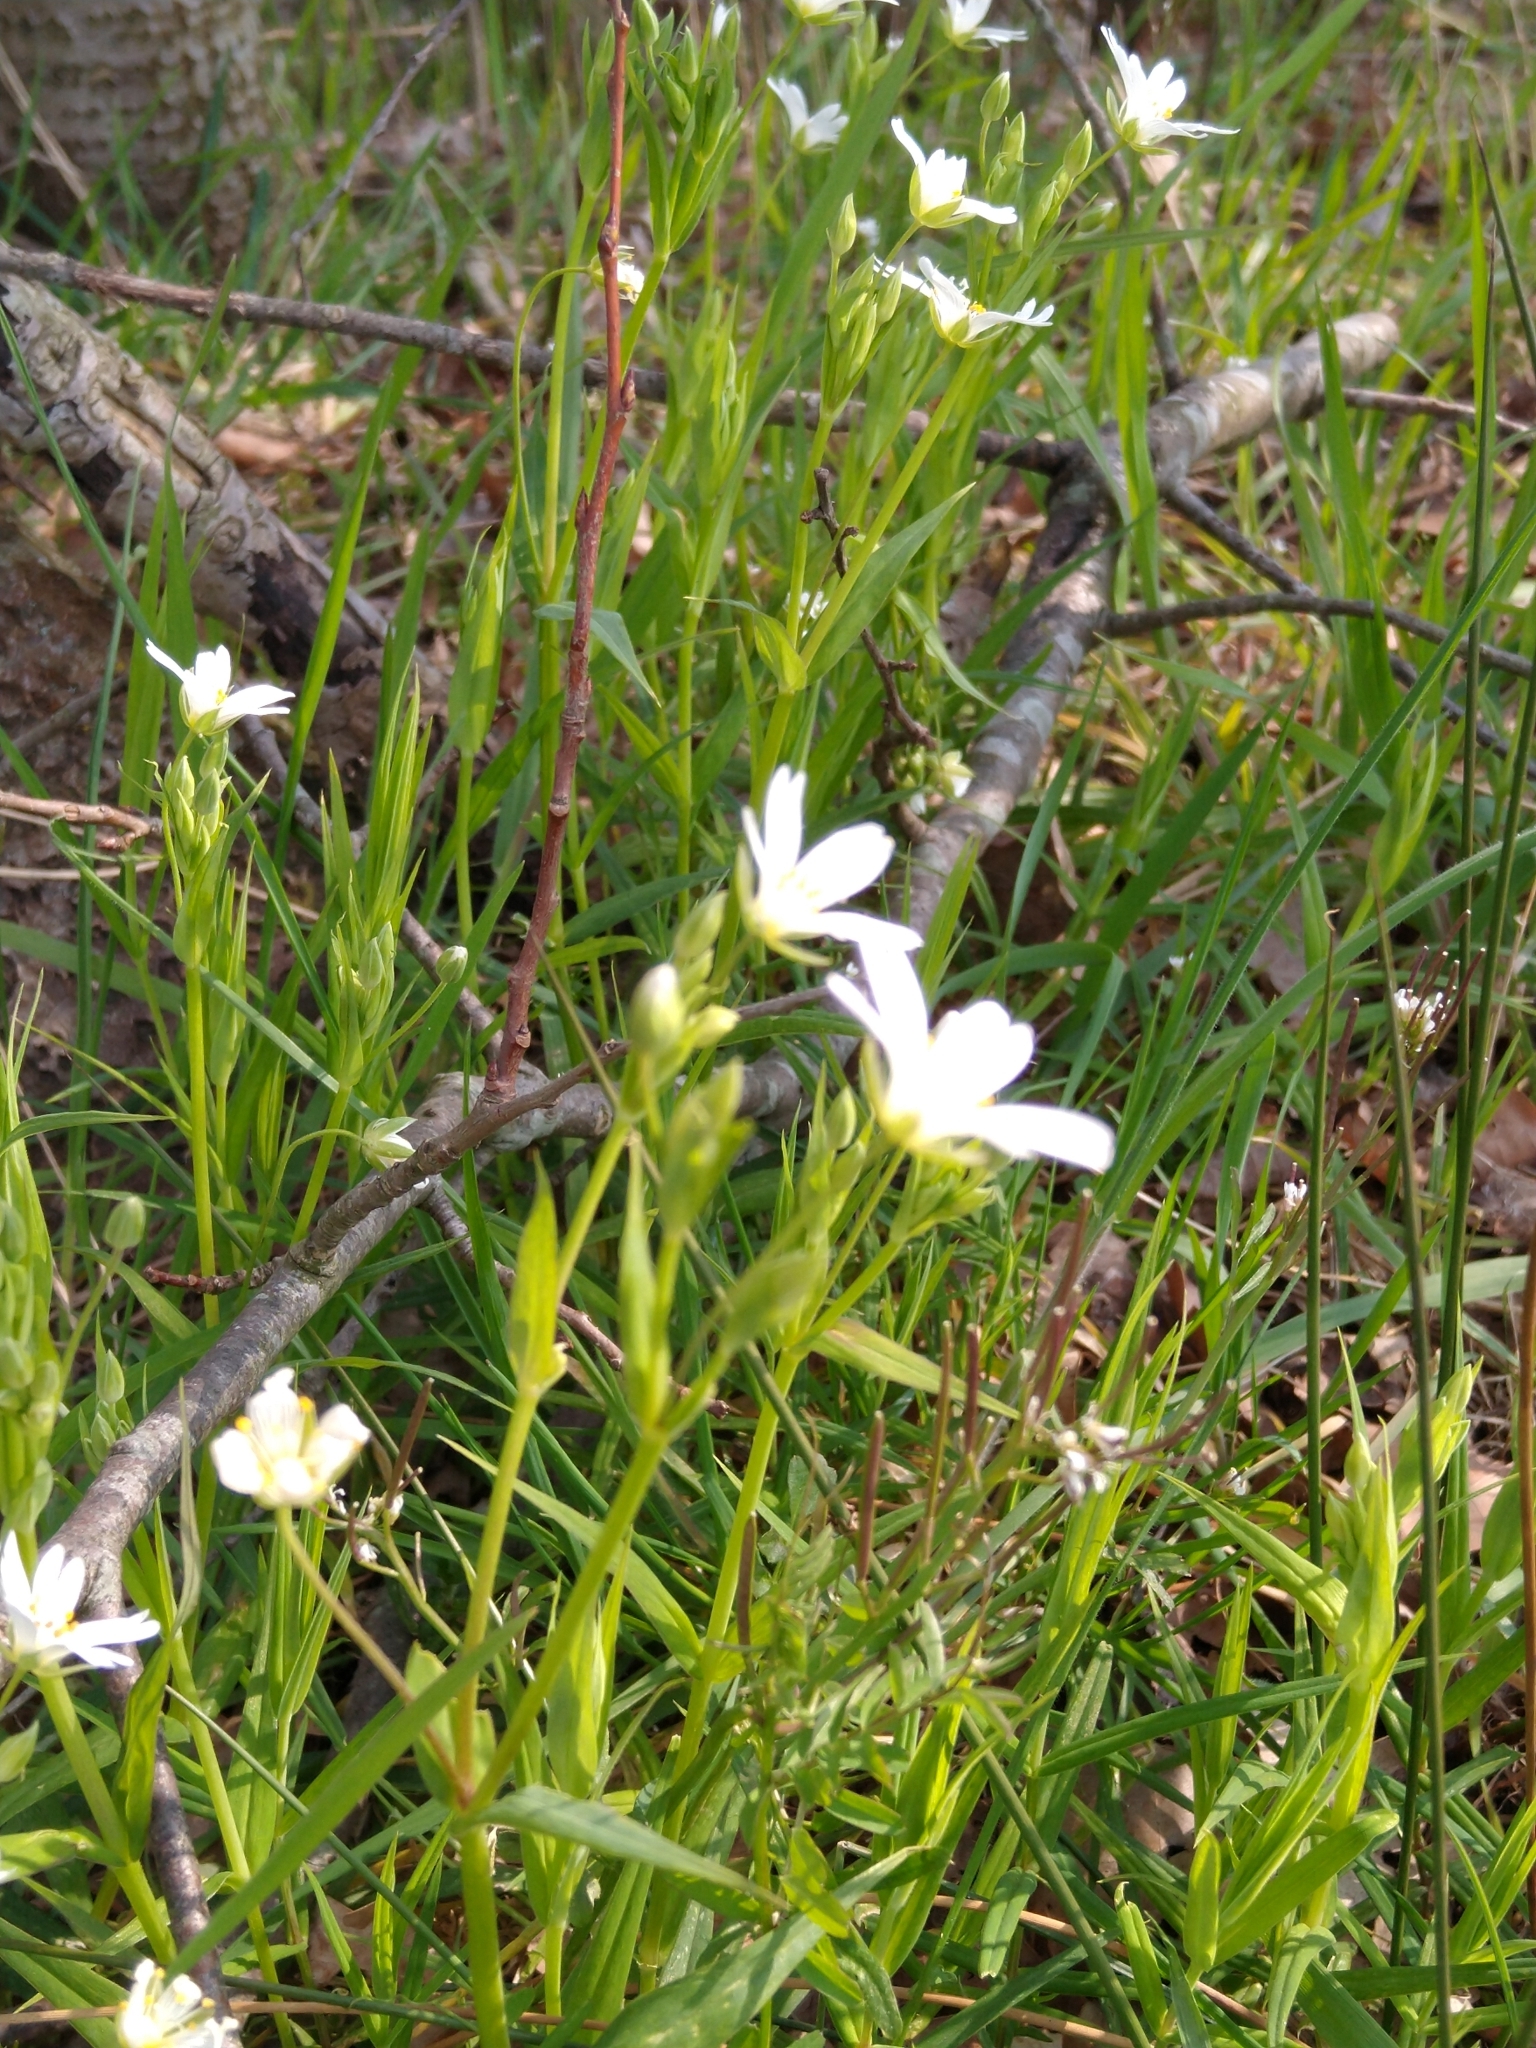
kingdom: Plantae
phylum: Tracheophyta
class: Magnoliopsida
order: Caryophyllales
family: Caryophyllaceae
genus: Rabelera
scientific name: Rabelera holostea
